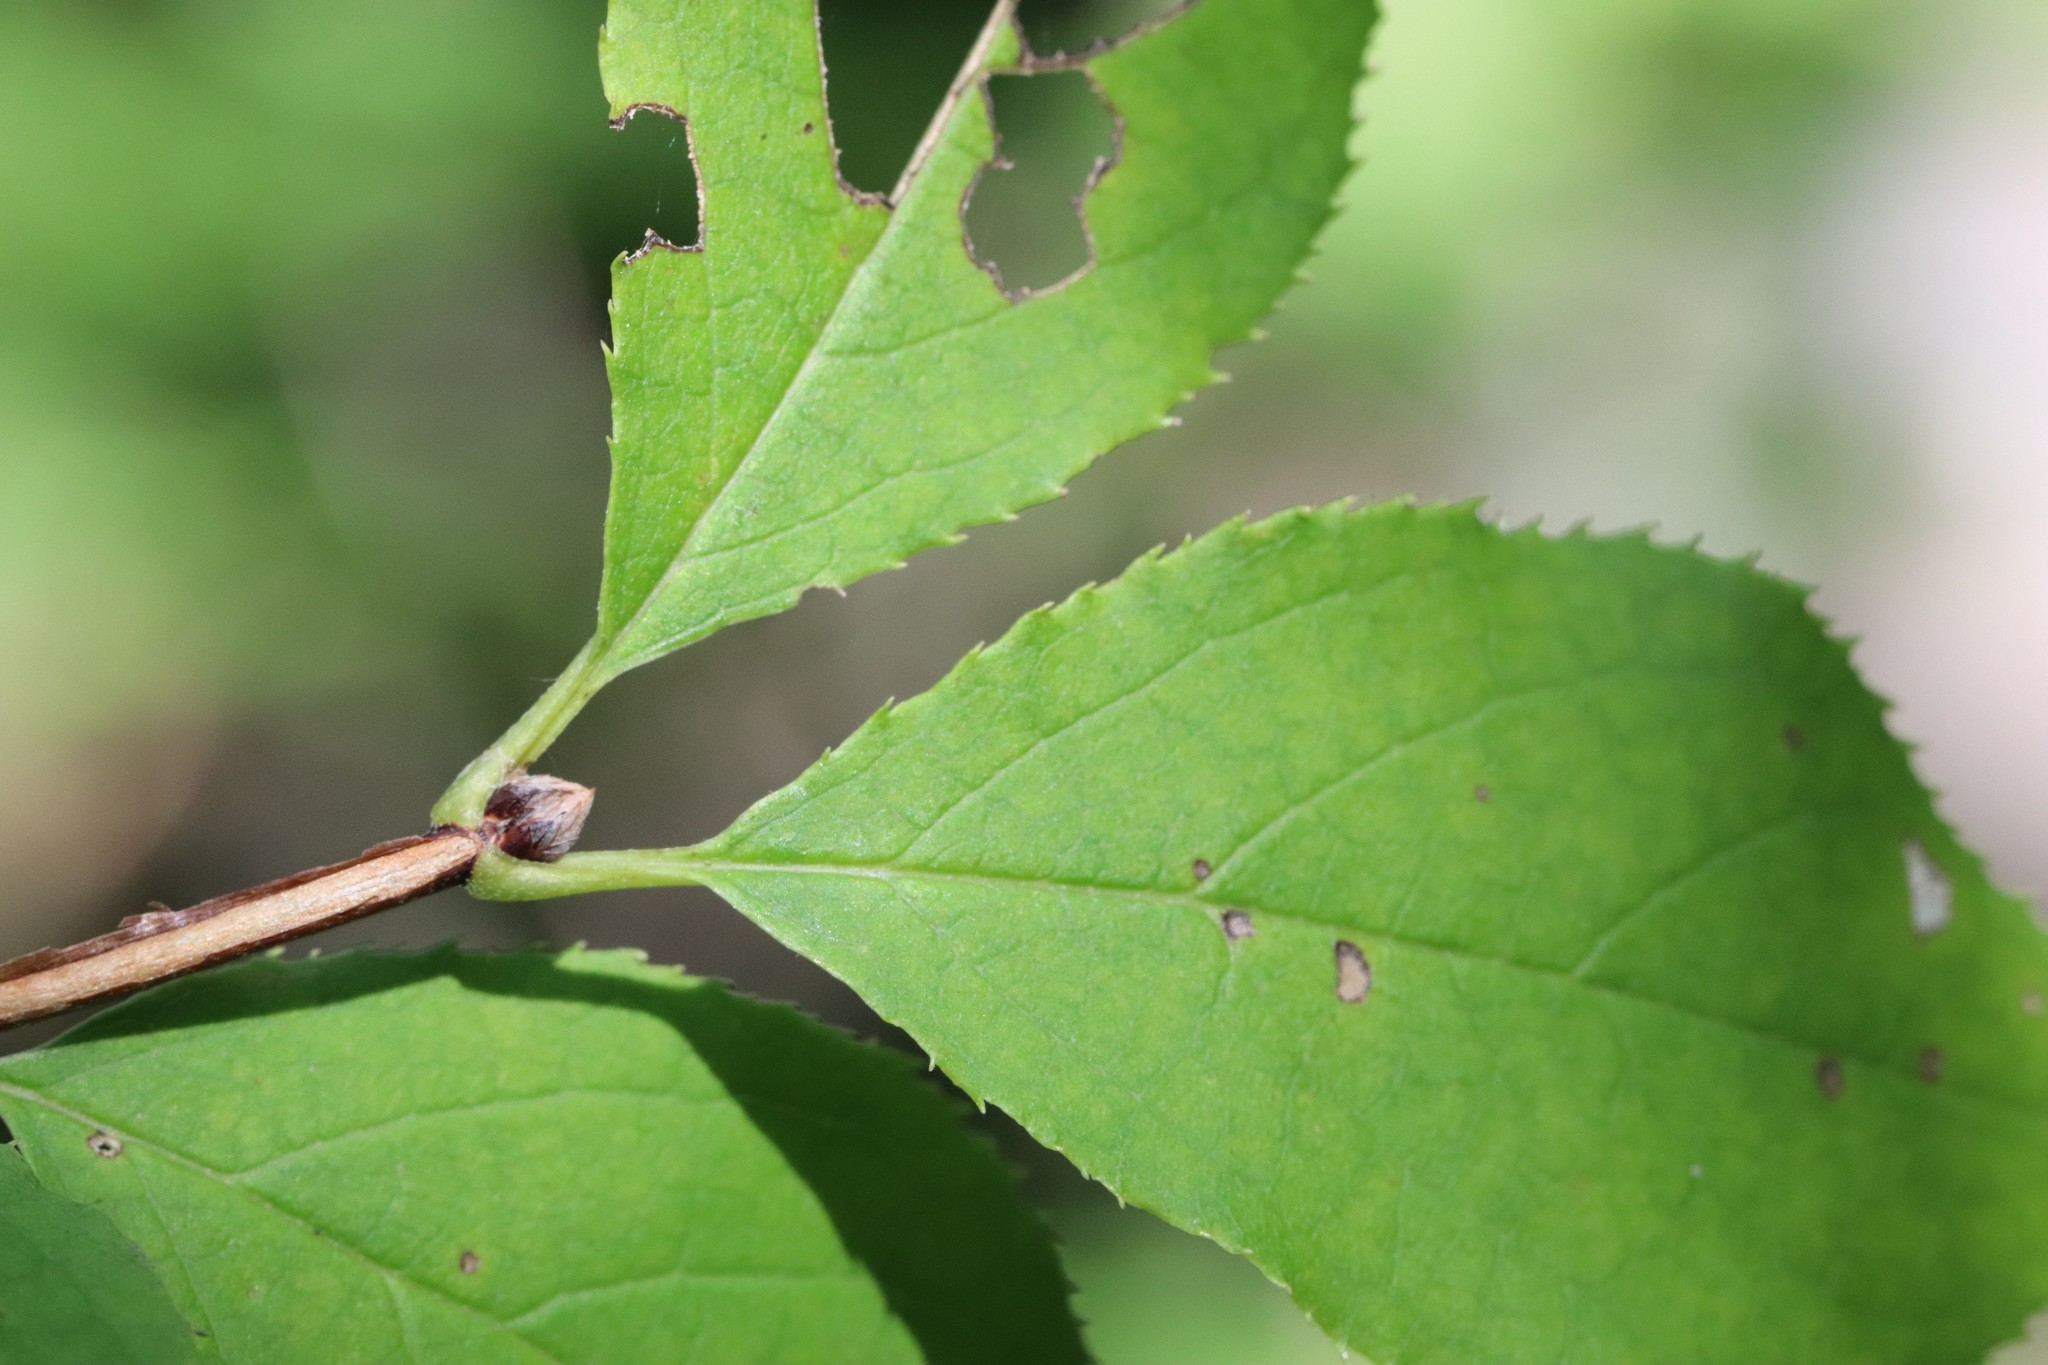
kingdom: Plantae
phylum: Tracheophyta
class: Magnoliopsida
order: Cornales
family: Hydrangeaceae
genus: Deutzia
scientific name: Deutzia parviflora
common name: Mongolian pride-of-rochester
